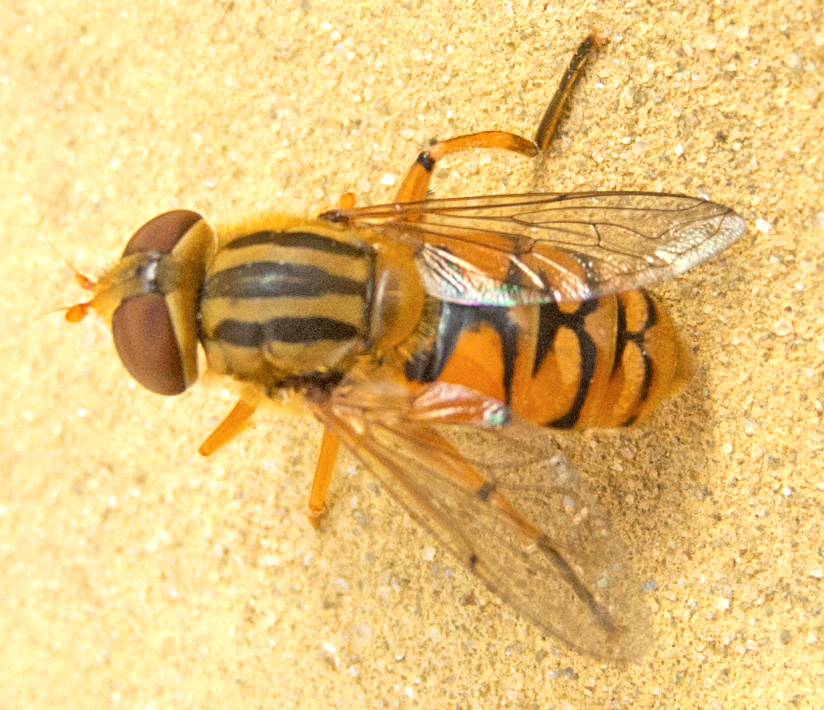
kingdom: Animalia
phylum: Arthropoda
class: Insecta
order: Diptera
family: Syrphidae
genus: Parhelophilus
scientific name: Parhelophilus versicolor
